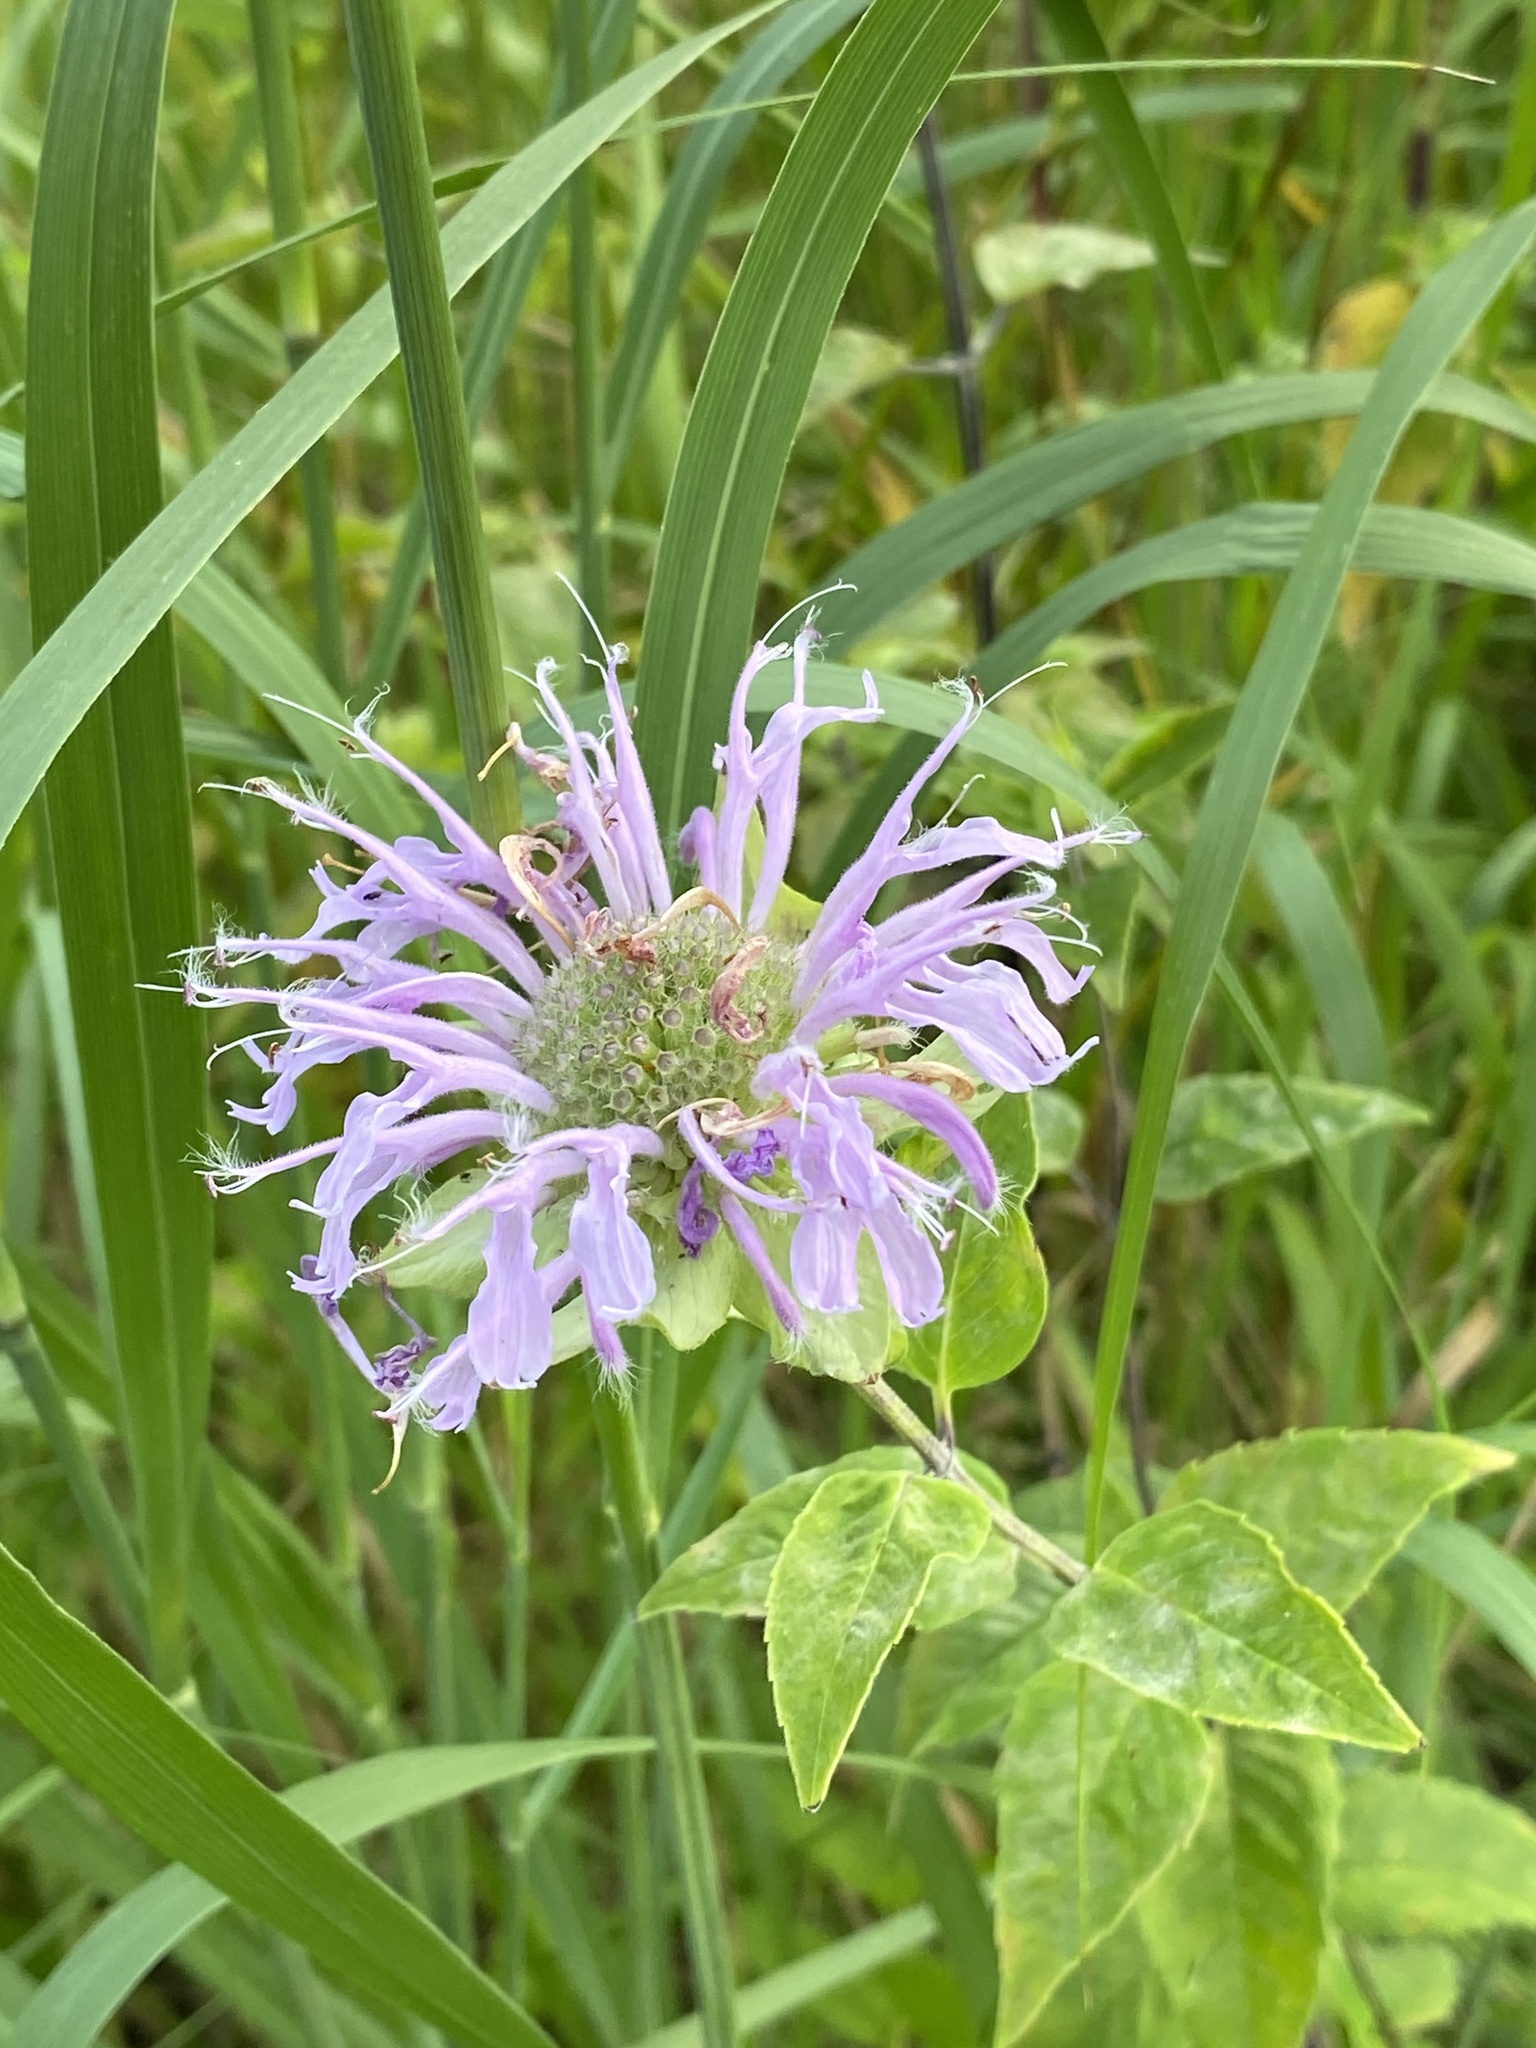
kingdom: Plantae
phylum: Tracheophyta
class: Magnoliopsida
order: Lamiales
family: Lamiaceae
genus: Monarda
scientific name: Monarda fistulosa
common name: Purple beebalm
